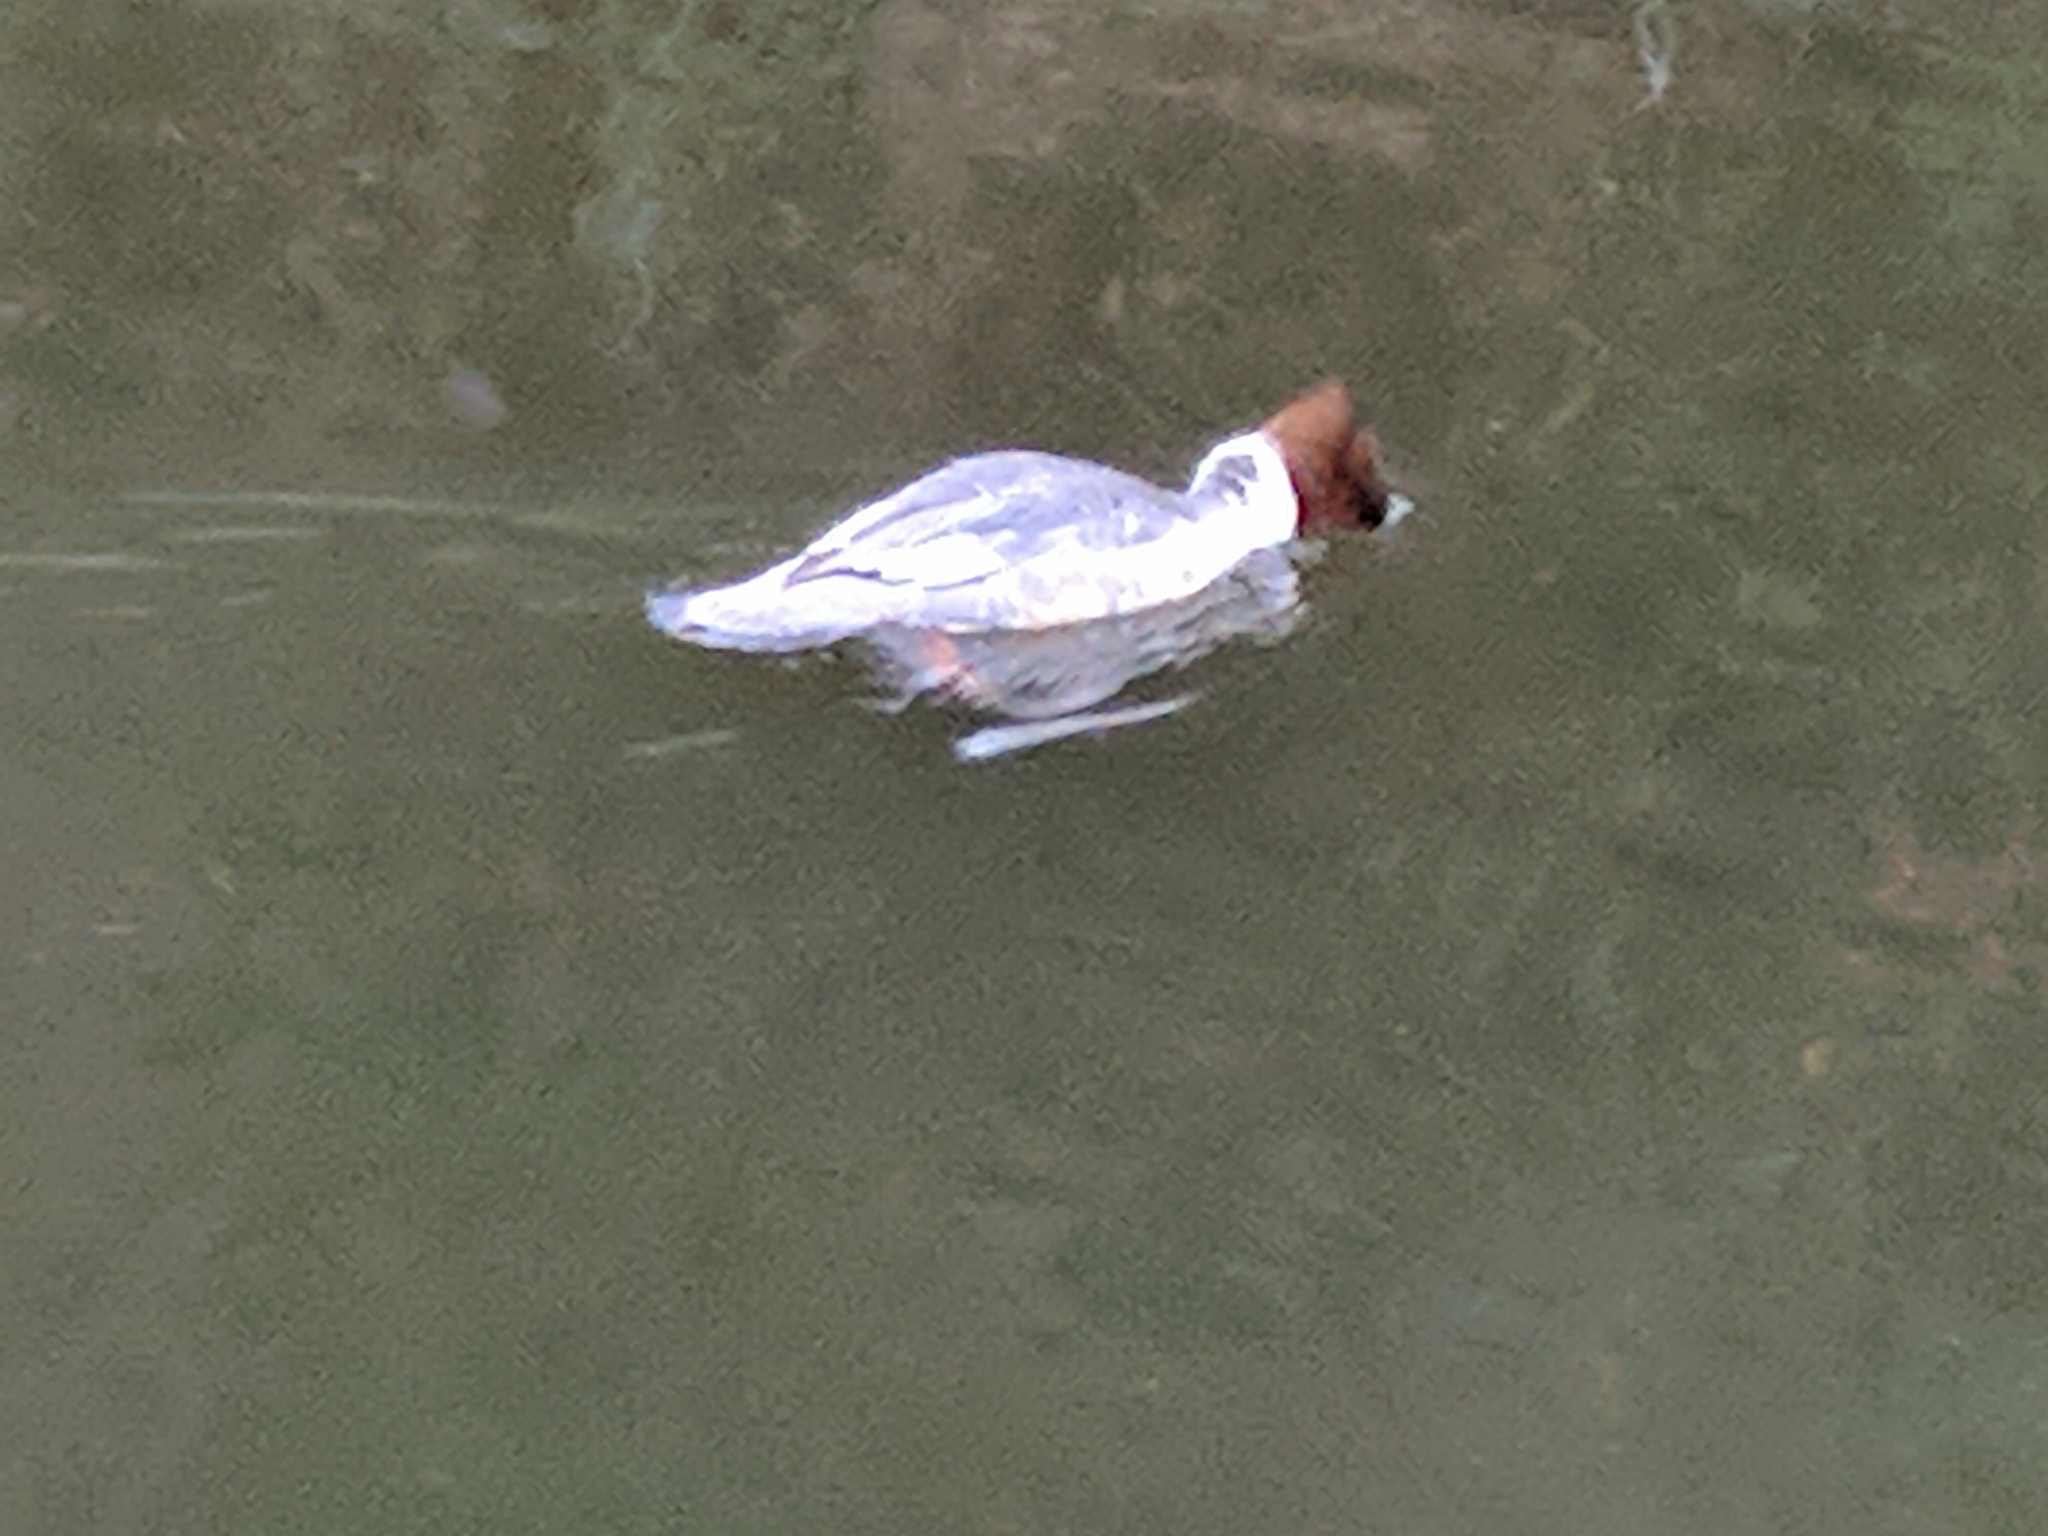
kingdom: Animalia
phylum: Chordata
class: Aves
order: Anseriformes
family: Anatidae
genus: Mergus
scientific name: Mergus merganser
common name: Common merganser
